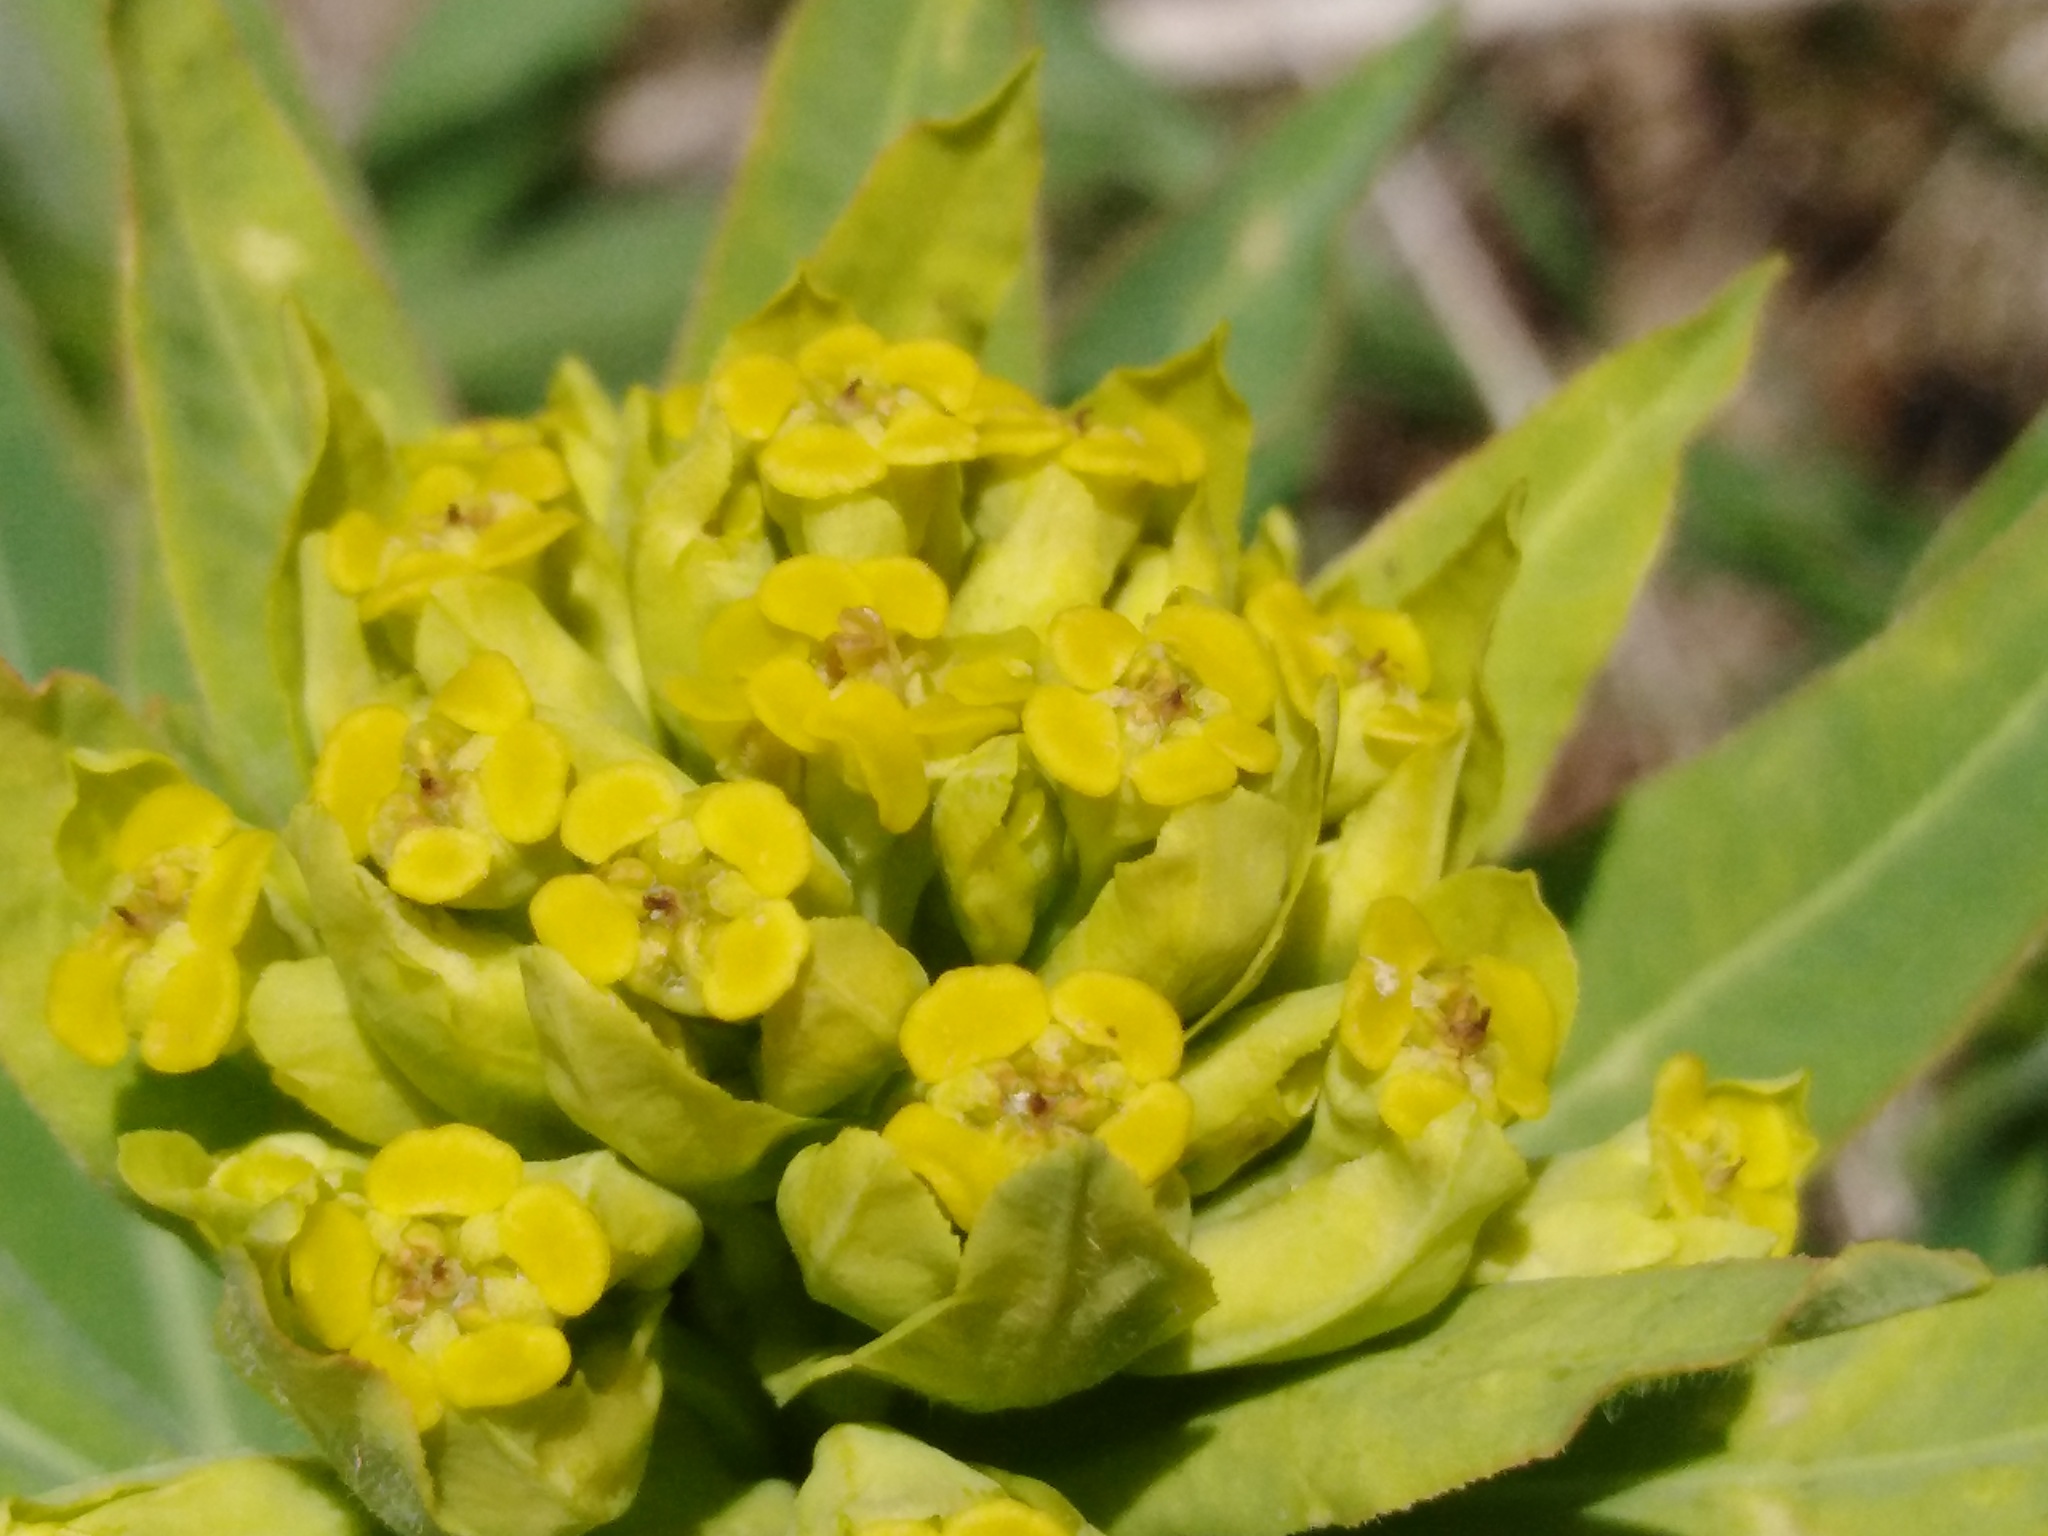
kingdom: Plantae
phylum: Tracheophyta
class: Magnoliopsida
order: Malpighiales
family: Euphorbiaceae
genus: Euphorbia
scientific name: Euphorbia semivillosa
